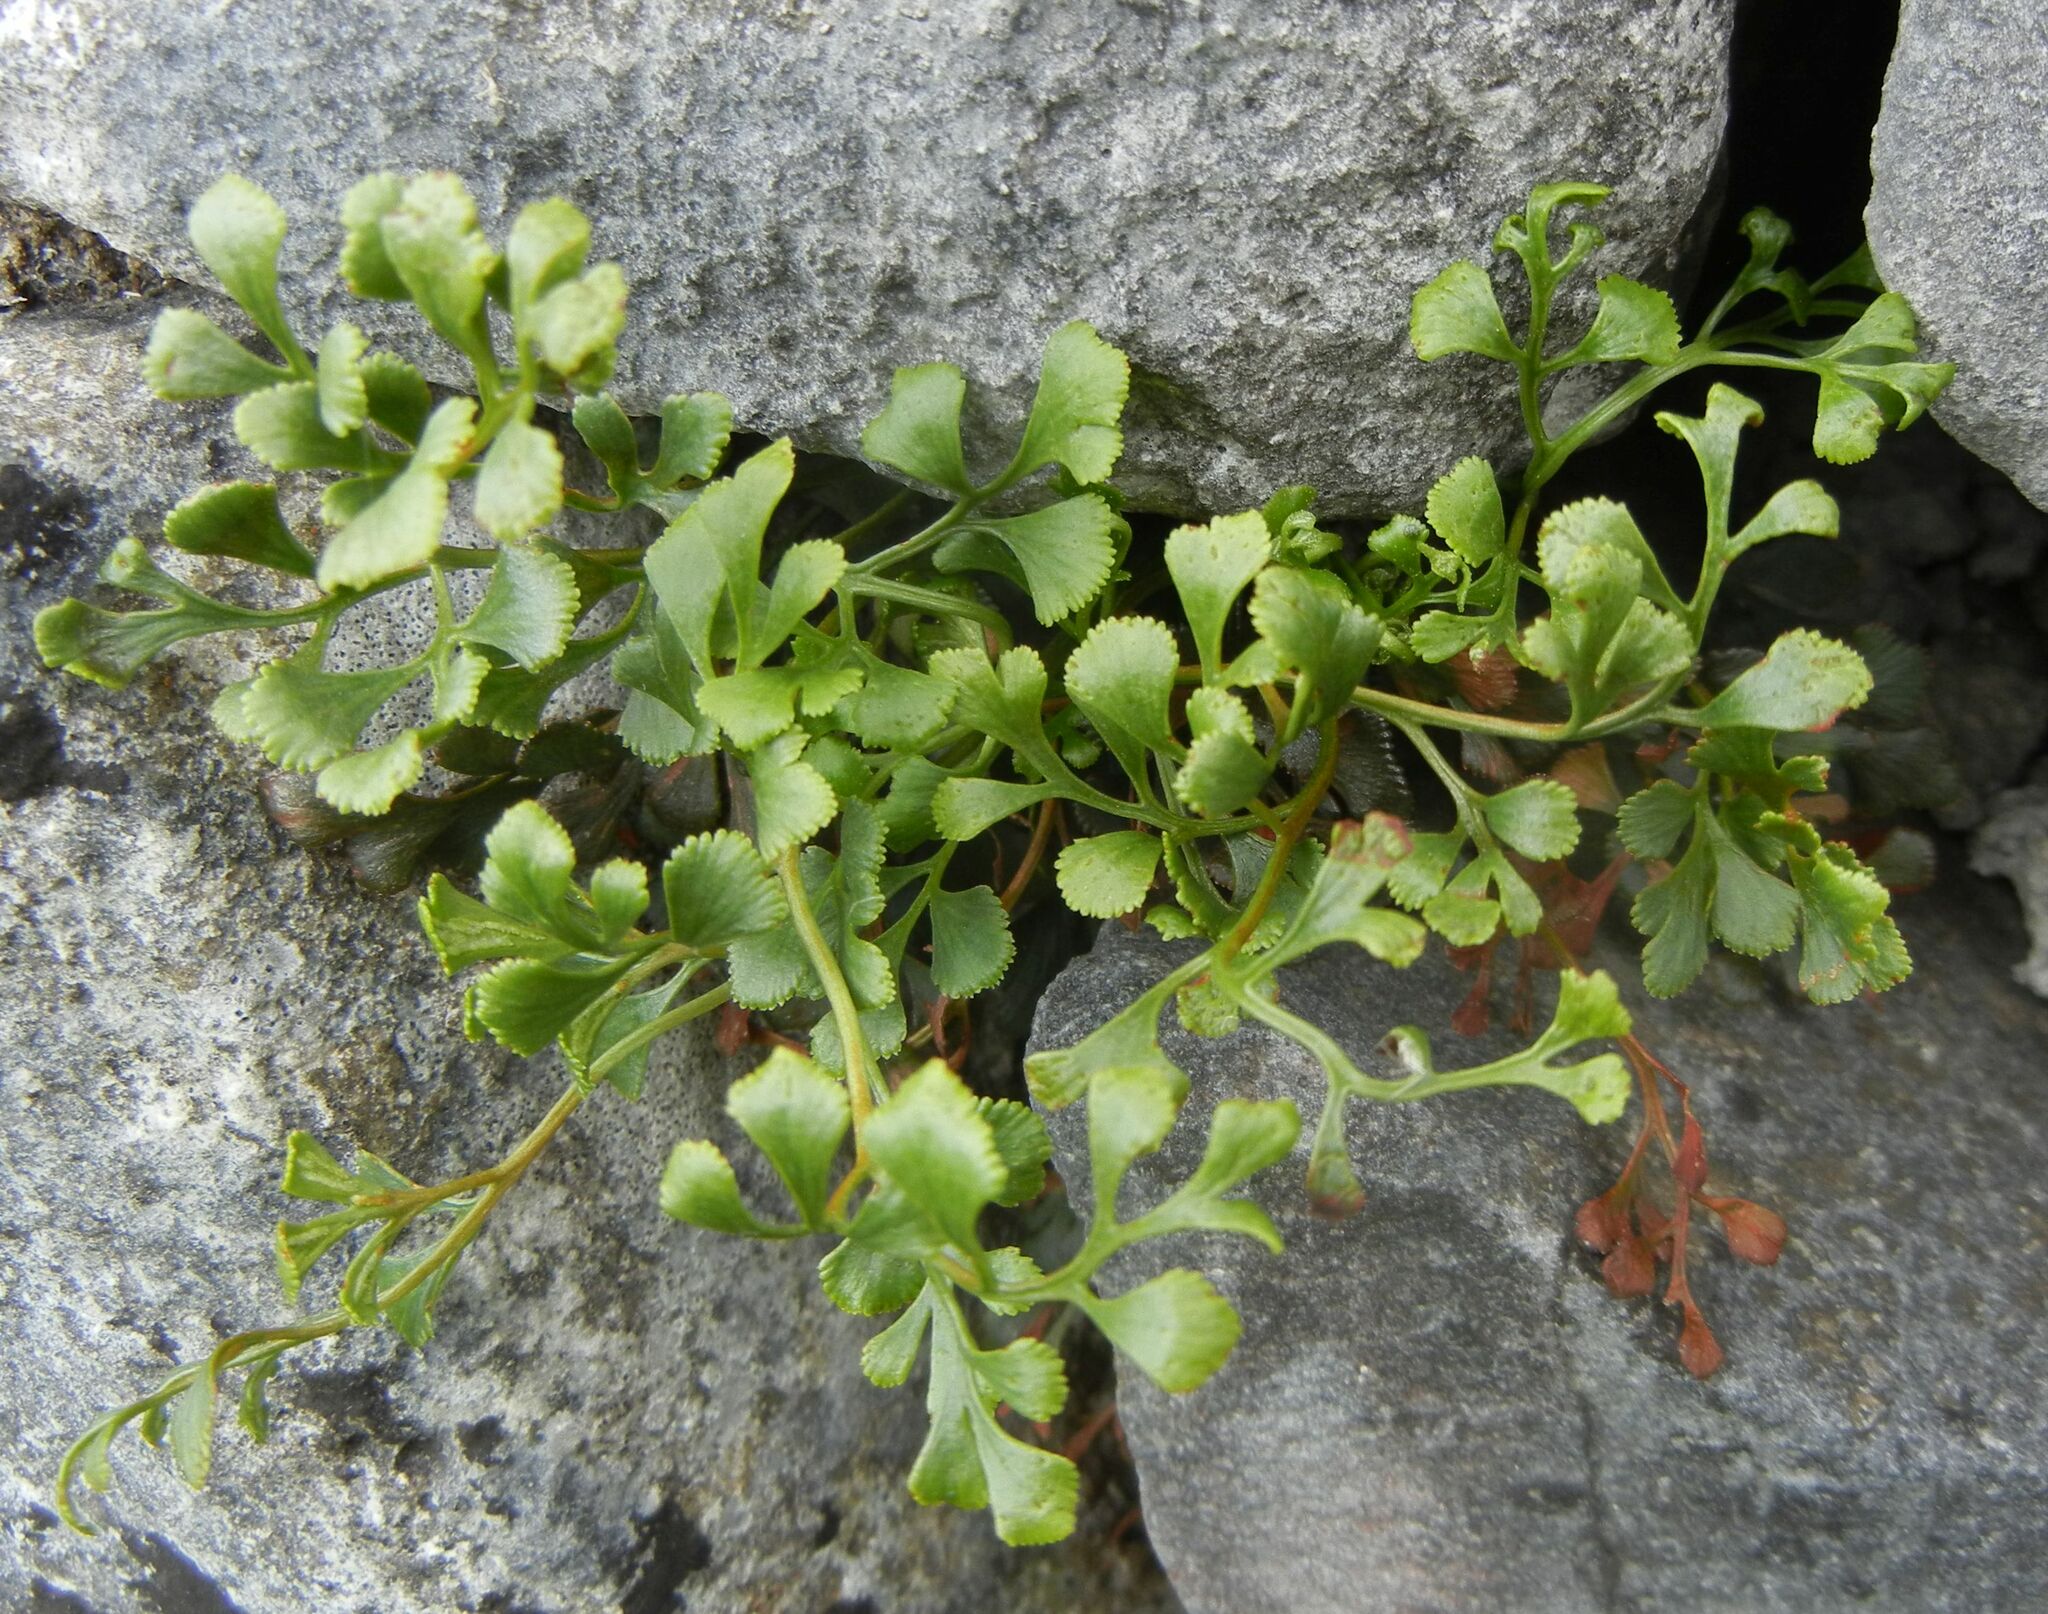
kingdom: Plantae
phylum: Tracheophyta
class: Polypodiopsida
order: Polypodiales
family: Aspleniaceae
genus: Asplenium
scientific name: Asplenium ruta-muraria
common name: Wall-rue
